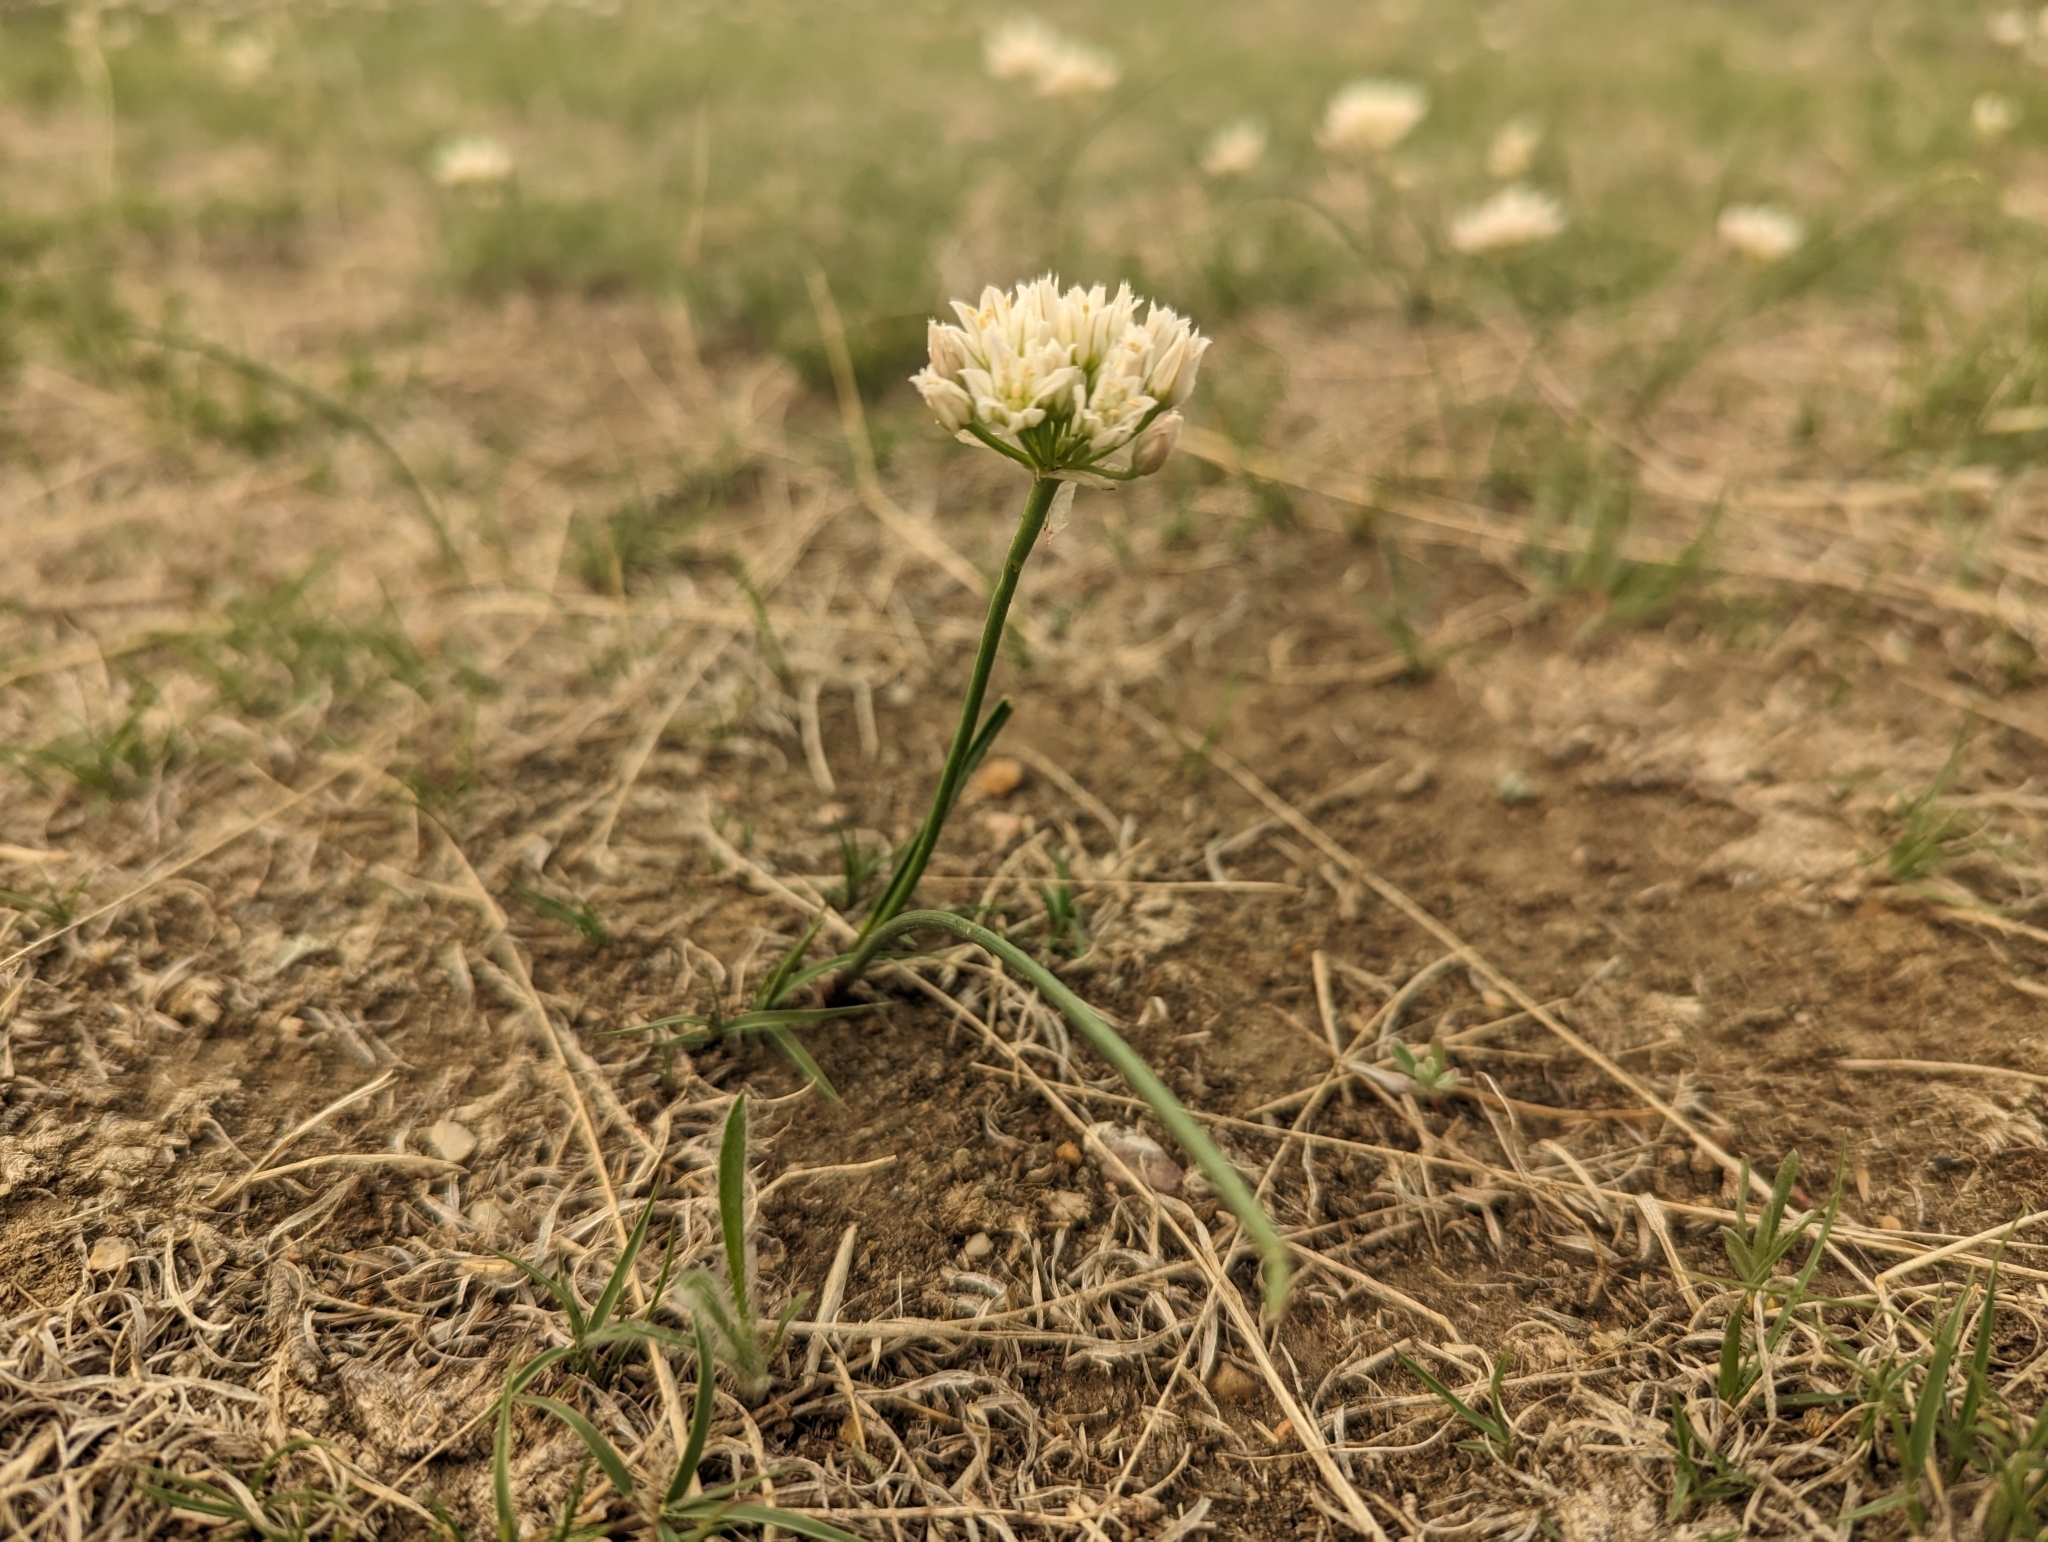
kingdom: Plantae
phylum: Tracheophyta
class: Liliopsida
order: Asparagales
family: Amaryllidaceae
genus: Allium
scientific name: Allium textile
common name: Prairie onion
